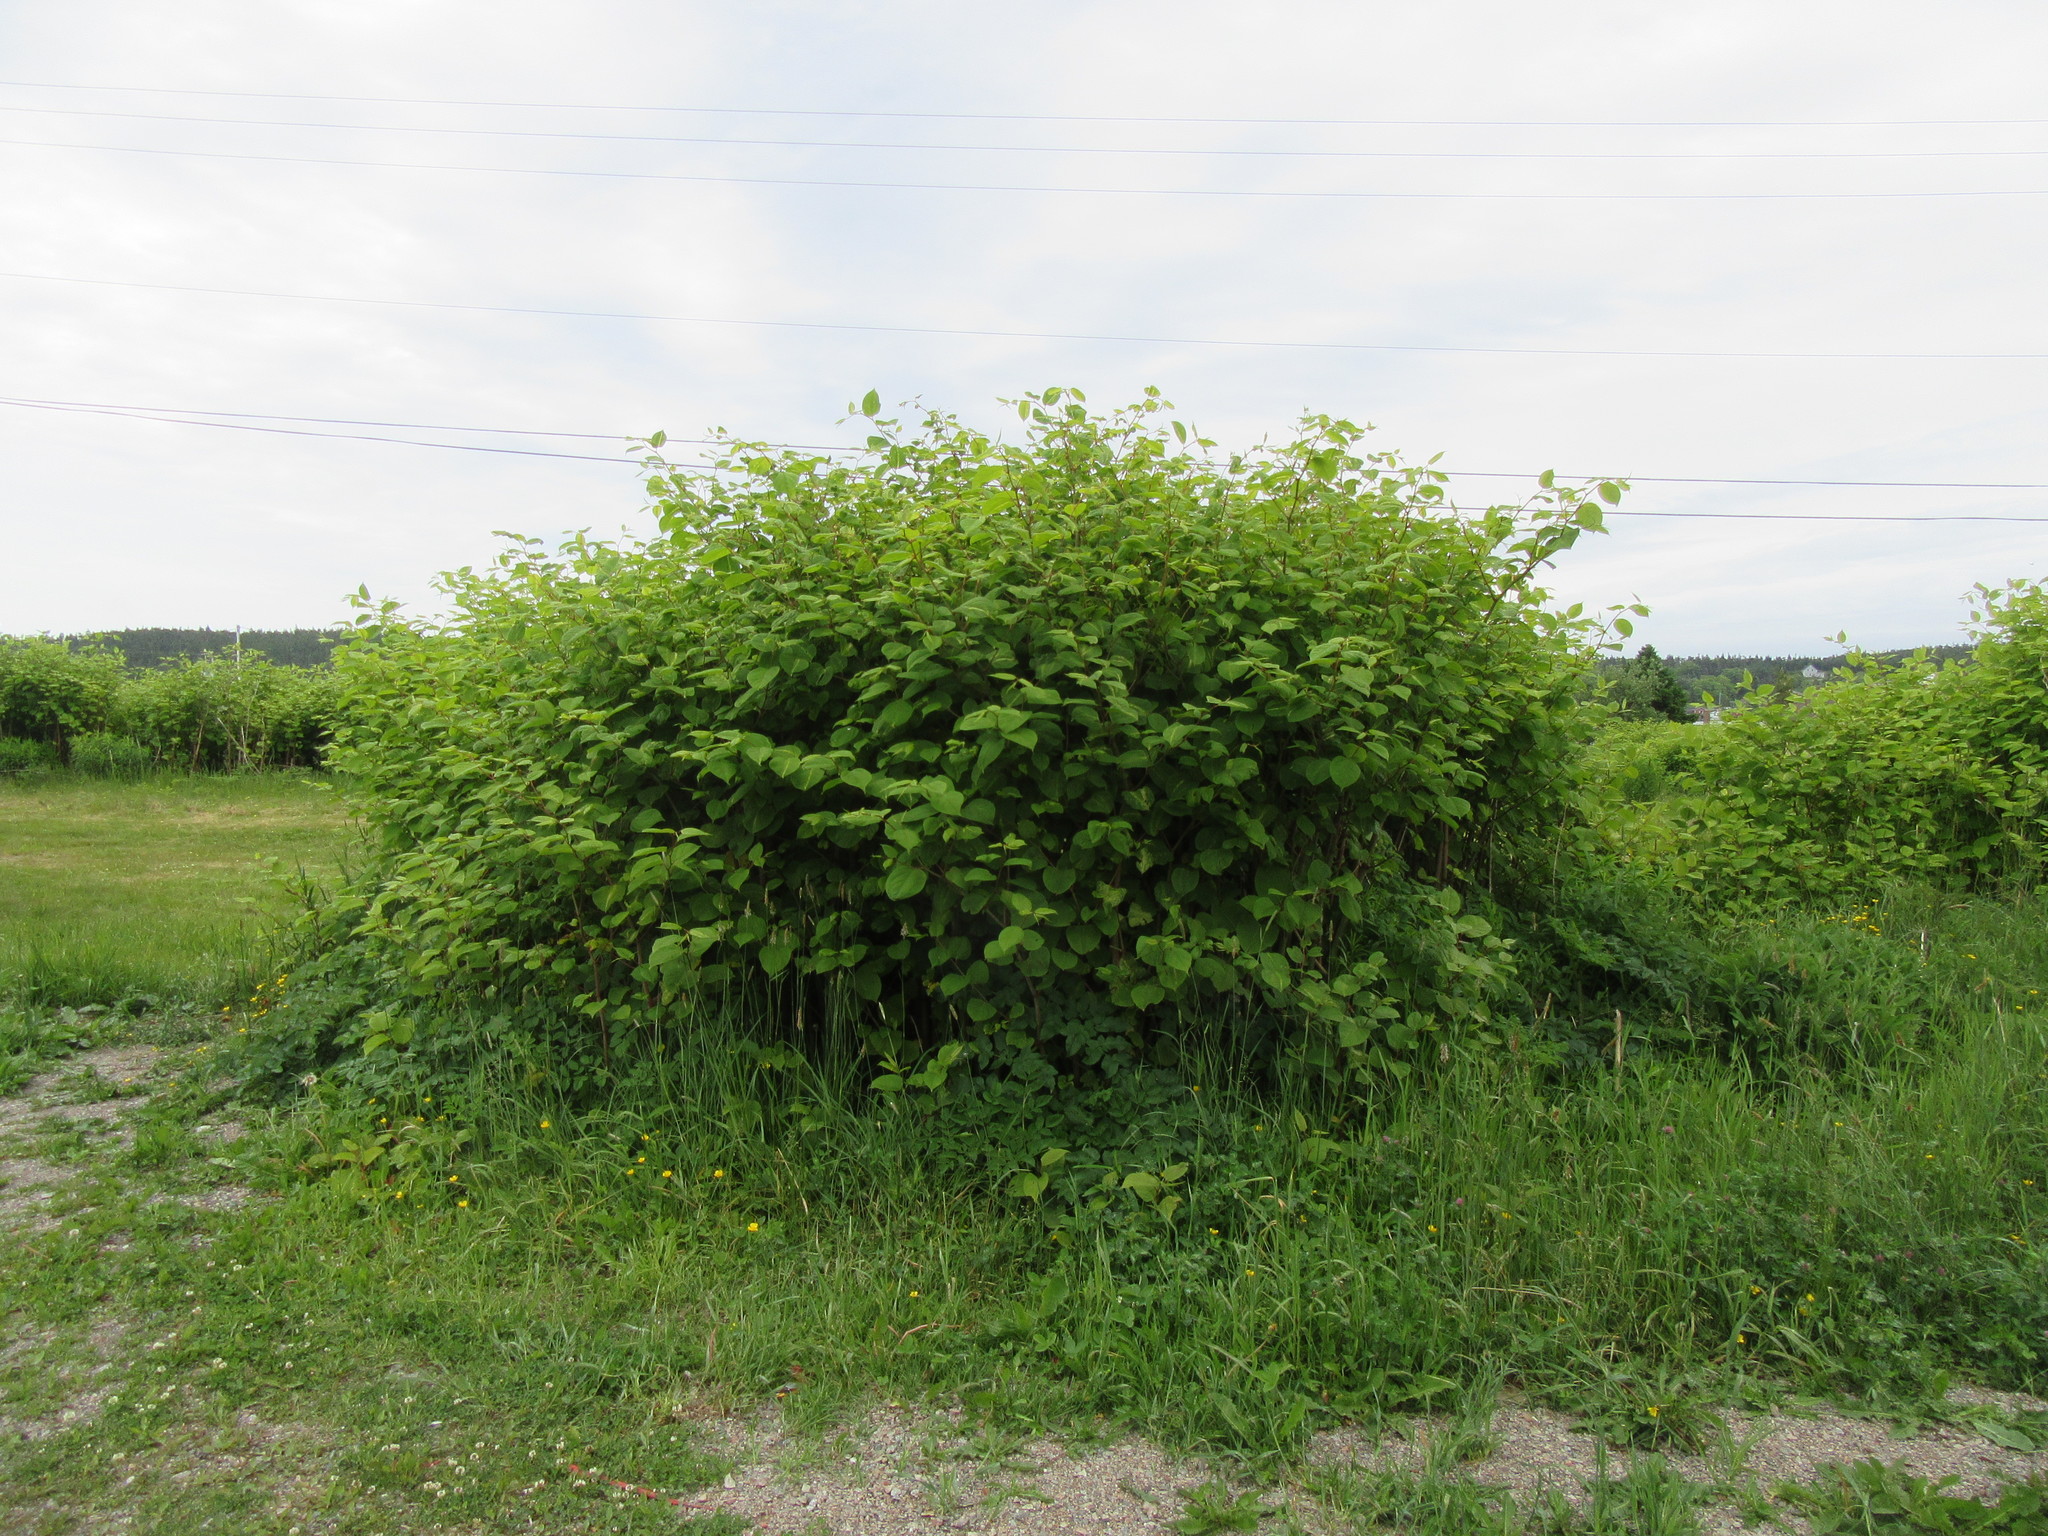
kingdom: Plantae
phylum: Tracheophyta
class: Magnoliopsida
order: Caryophyllales
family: Polygonaceae
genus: Reynoutria
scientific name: Reynoutria japonica
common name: Japanese knotweed
